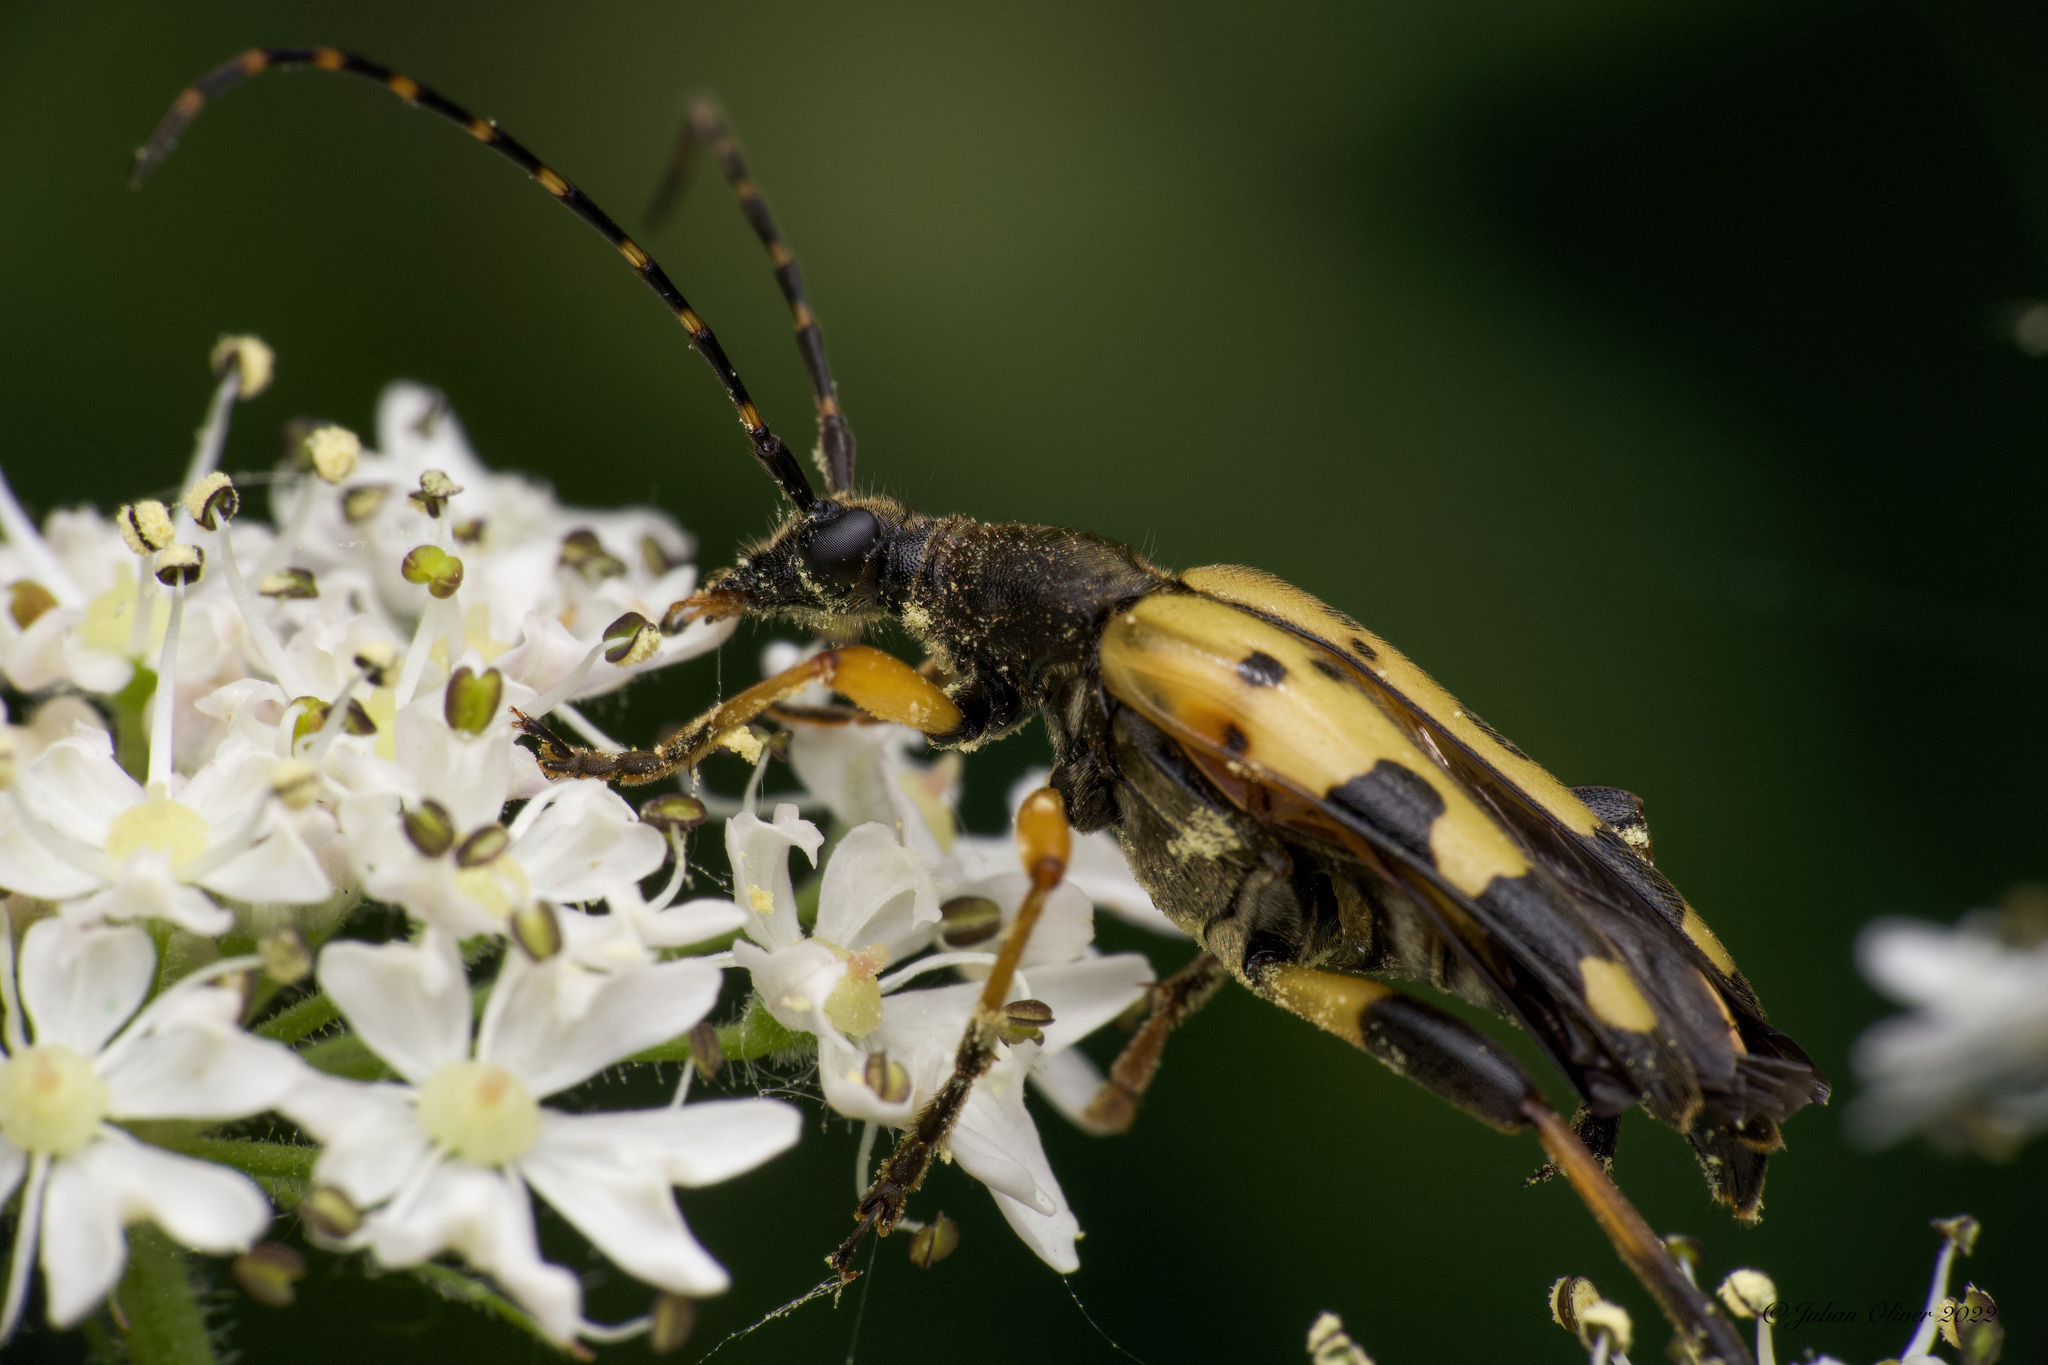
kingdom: Animalia
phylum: Arthropoda
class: Insecta
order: Coleoptera
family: Cerambycidae
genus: Rutpela
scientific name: Rutpela maculata
